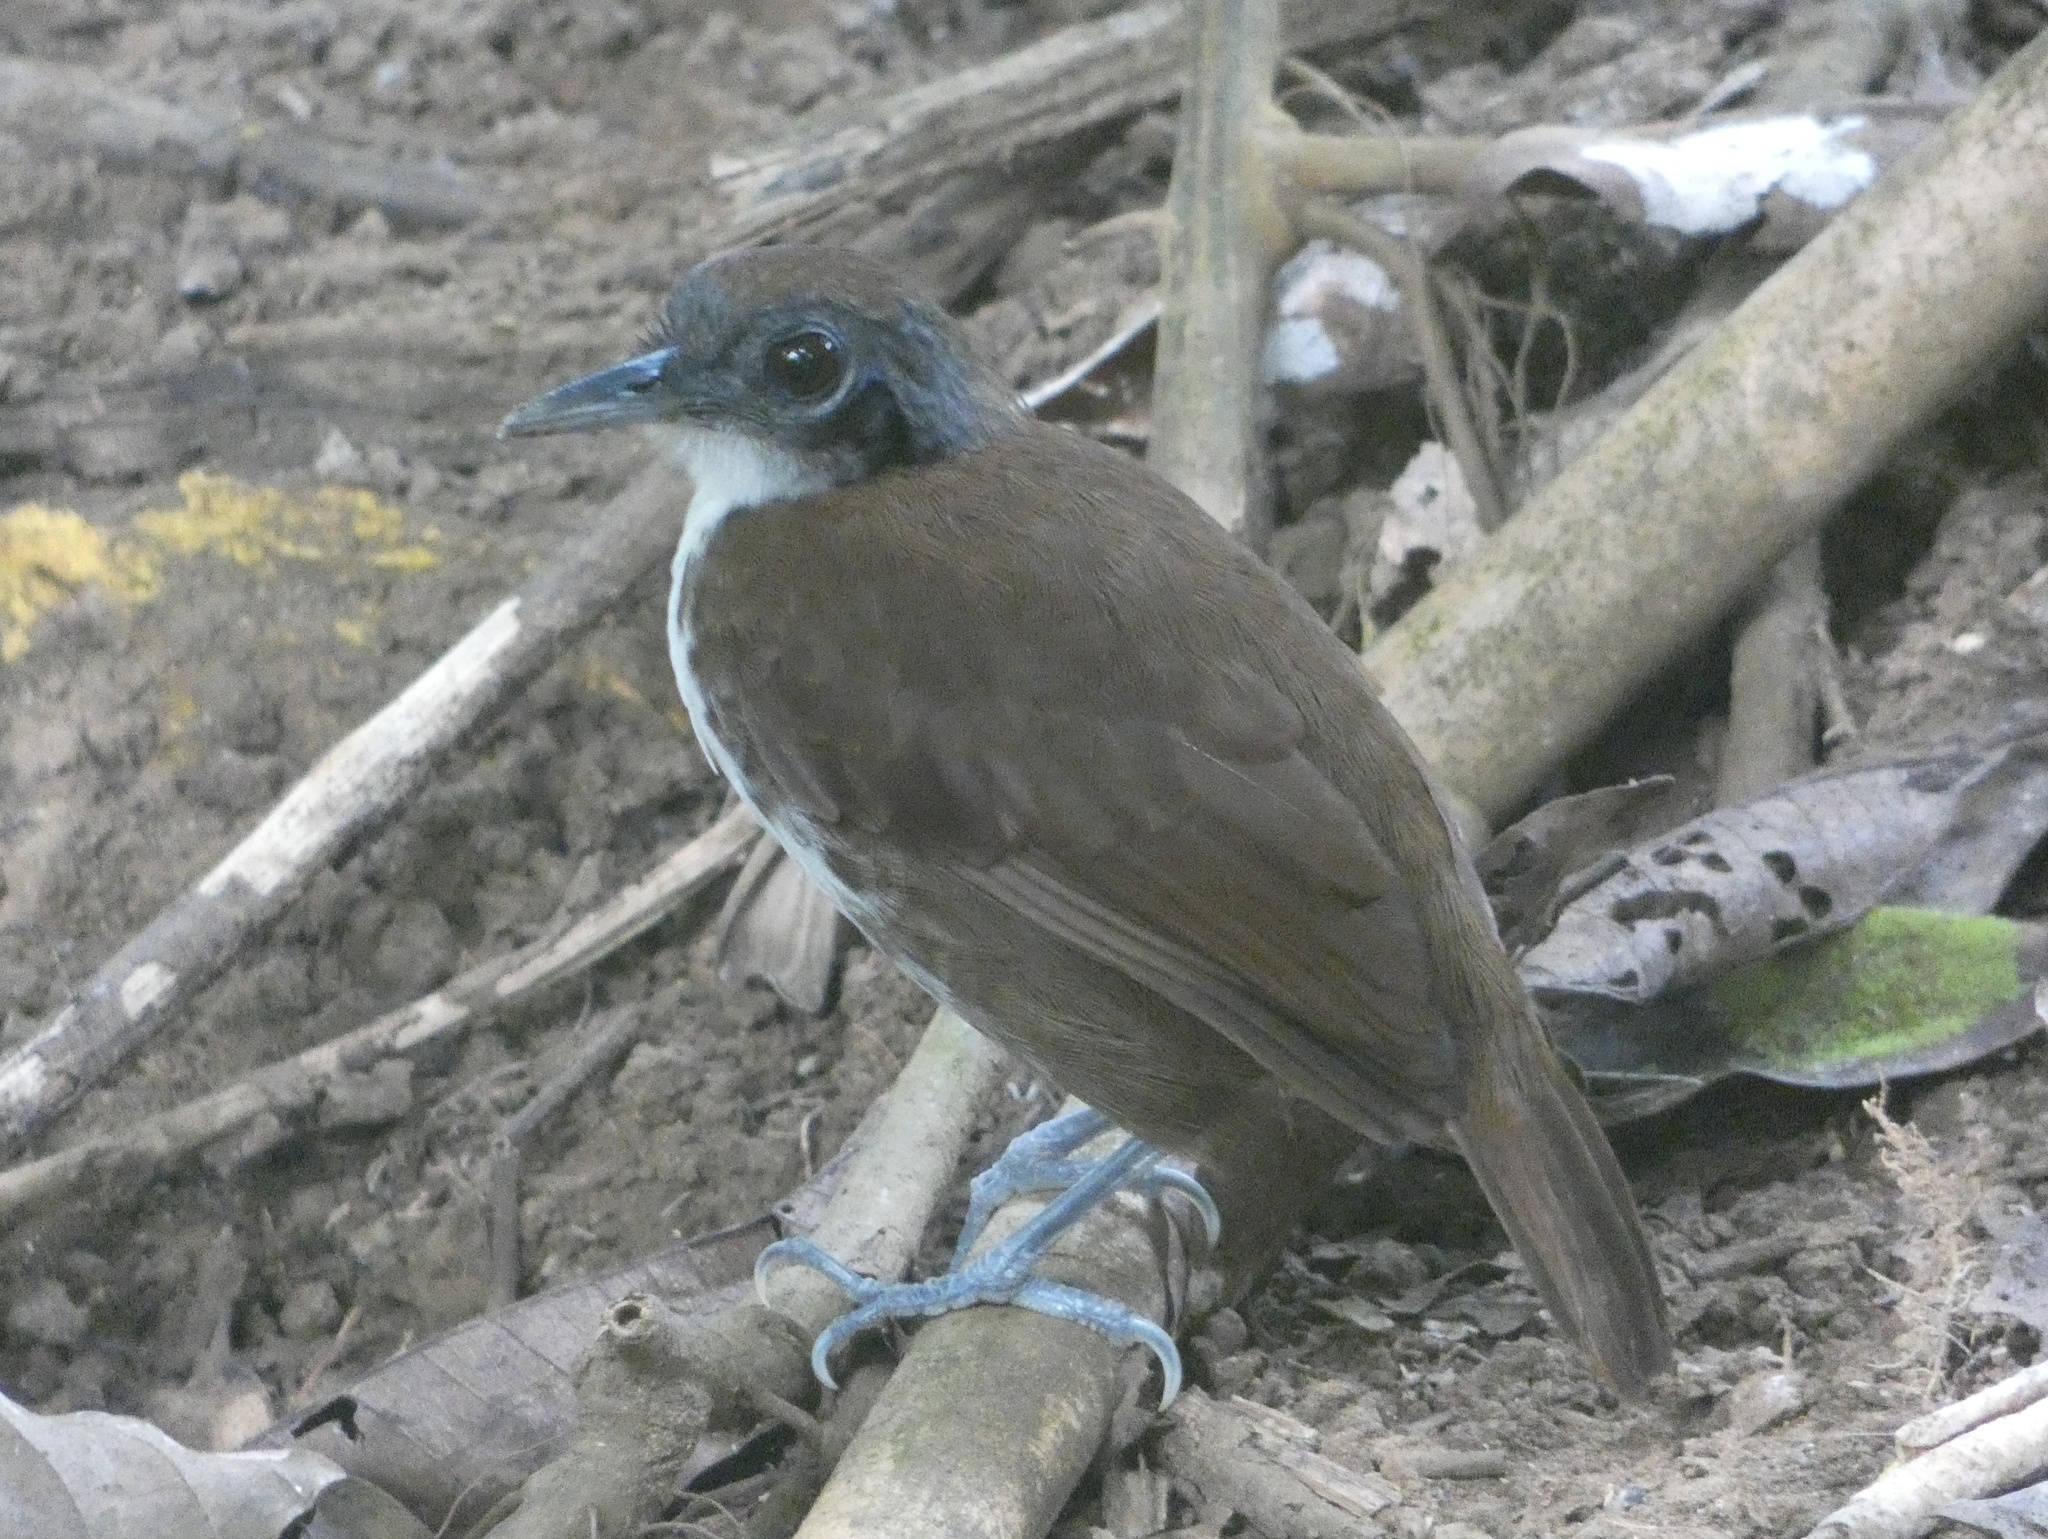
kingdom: Animalia
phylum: Chordata
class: Aves
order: Passeriformes
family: Thamnophilidae
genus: Gymnopithys
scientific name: Gymnopithys leucaspis
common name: White-cheeked antbird
